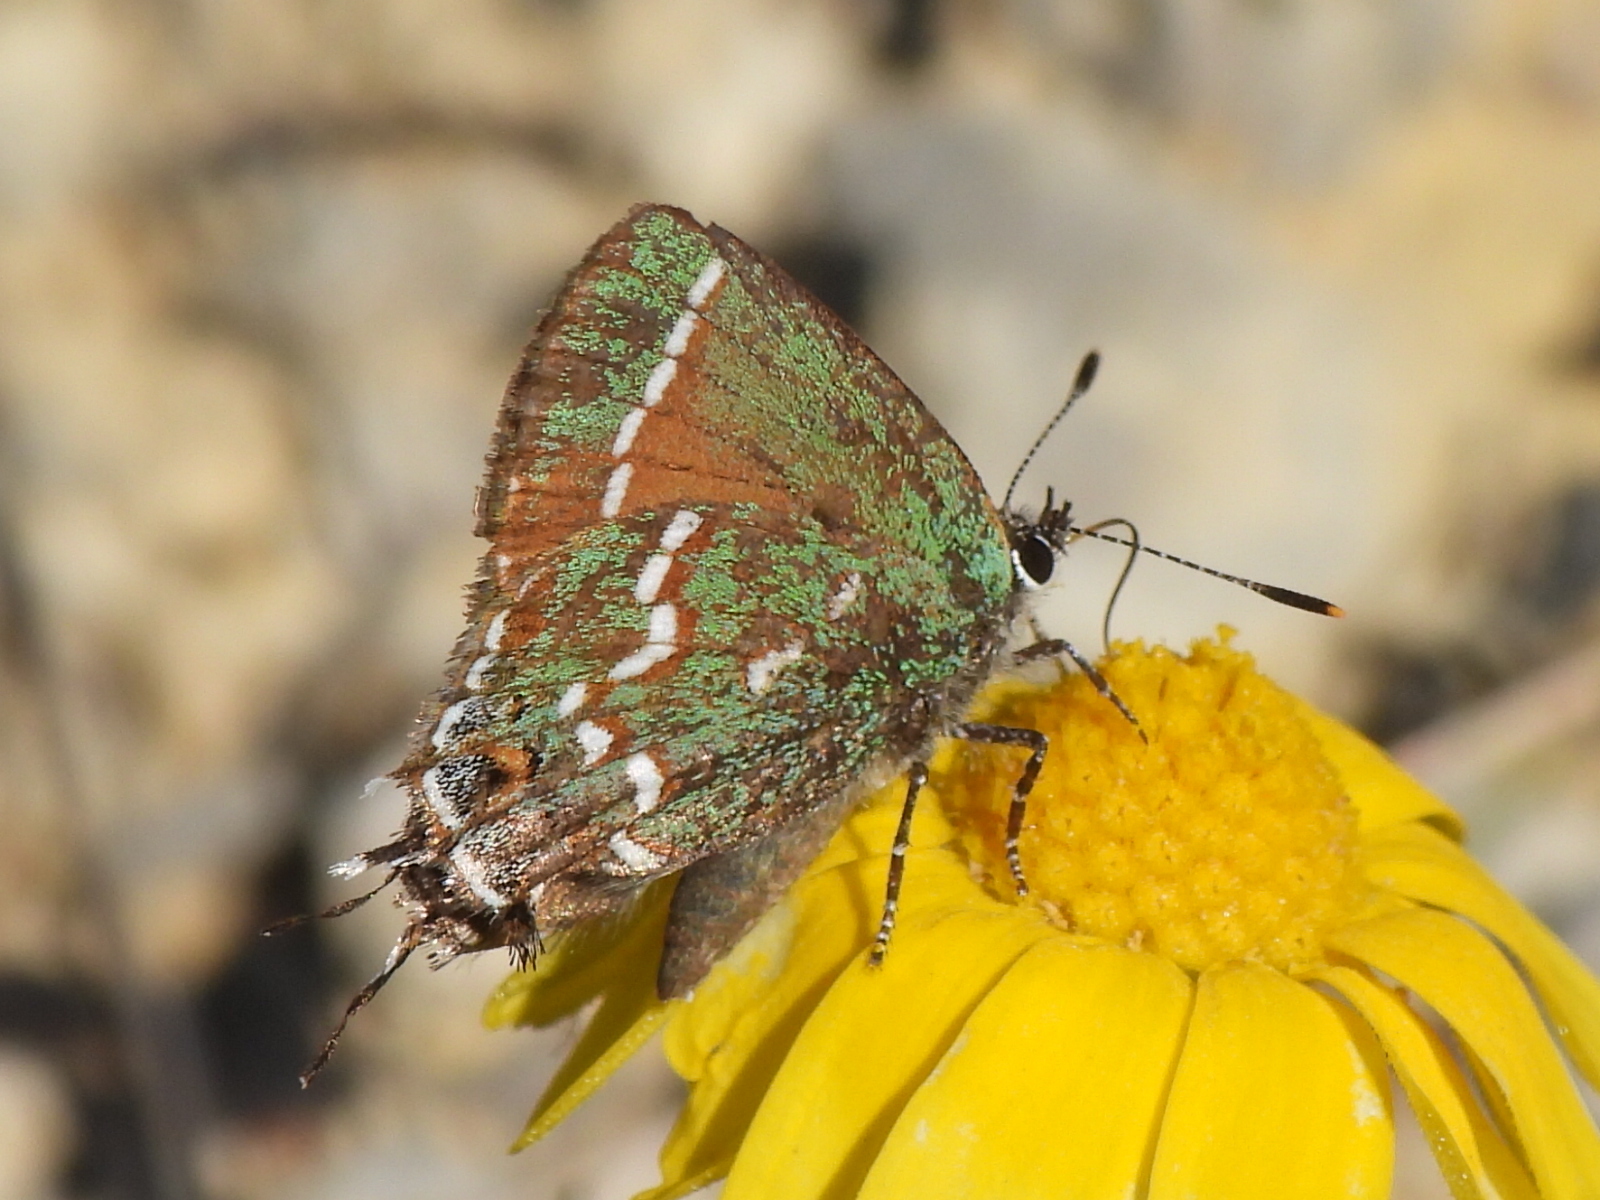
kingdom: Animalia
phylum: Arthropoda
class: Insecta
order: Lepidoptera
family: Lycaenidae
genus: Mitoura
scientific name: Mitoura gryneus
